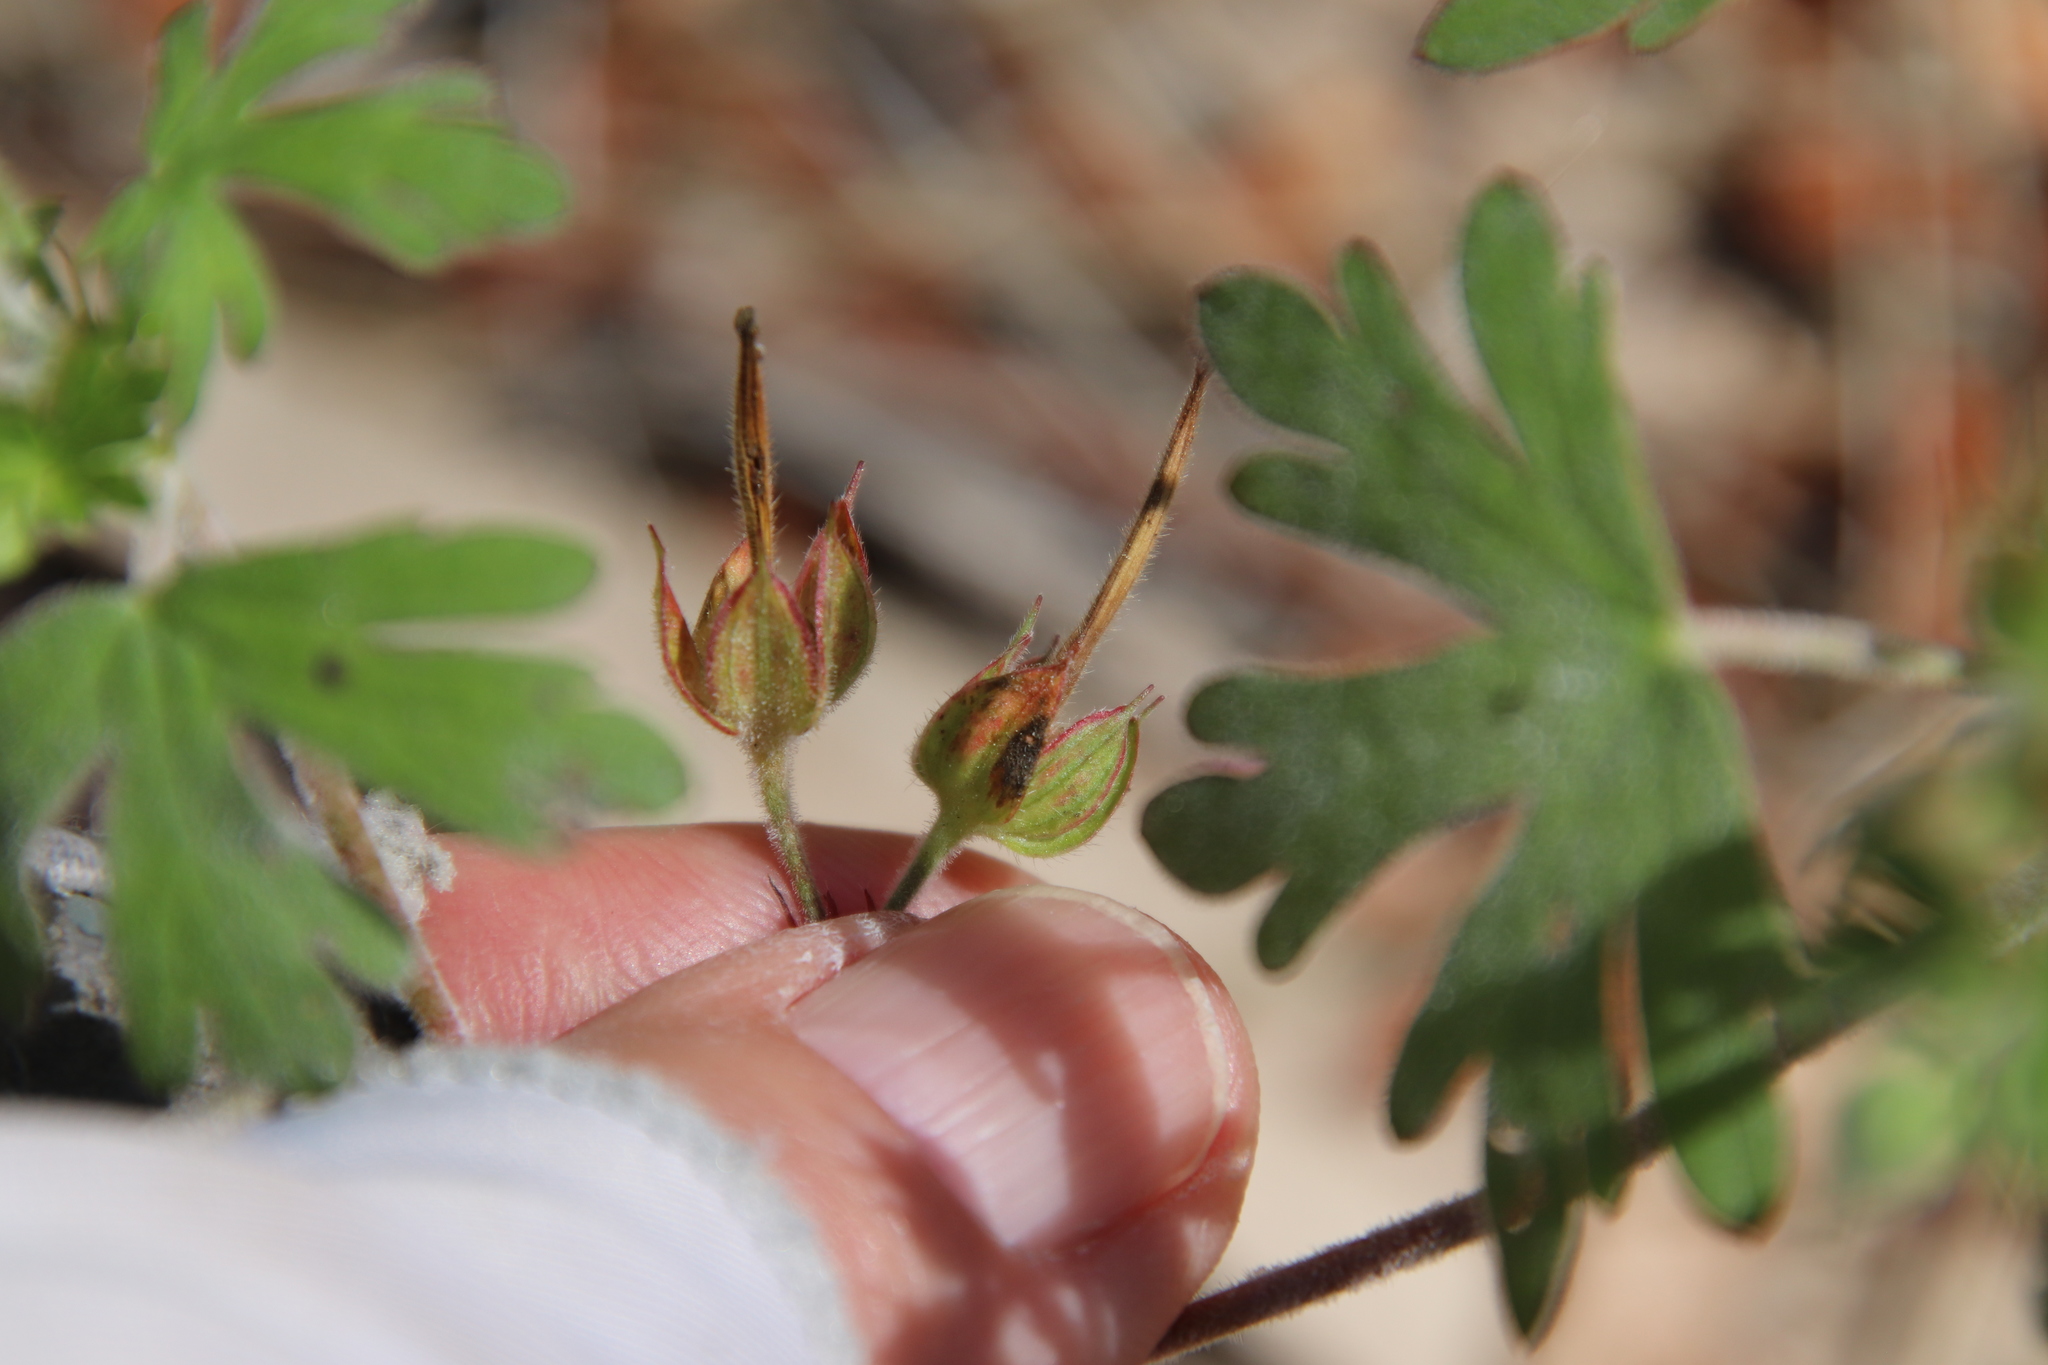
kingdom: Plantae
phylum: Tracheophyta
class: Magnoliopsida
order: Geraniales
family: Geraniaceae
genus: Geranium
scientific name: Geranium carolinianum
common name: Carolina crane's-bill
